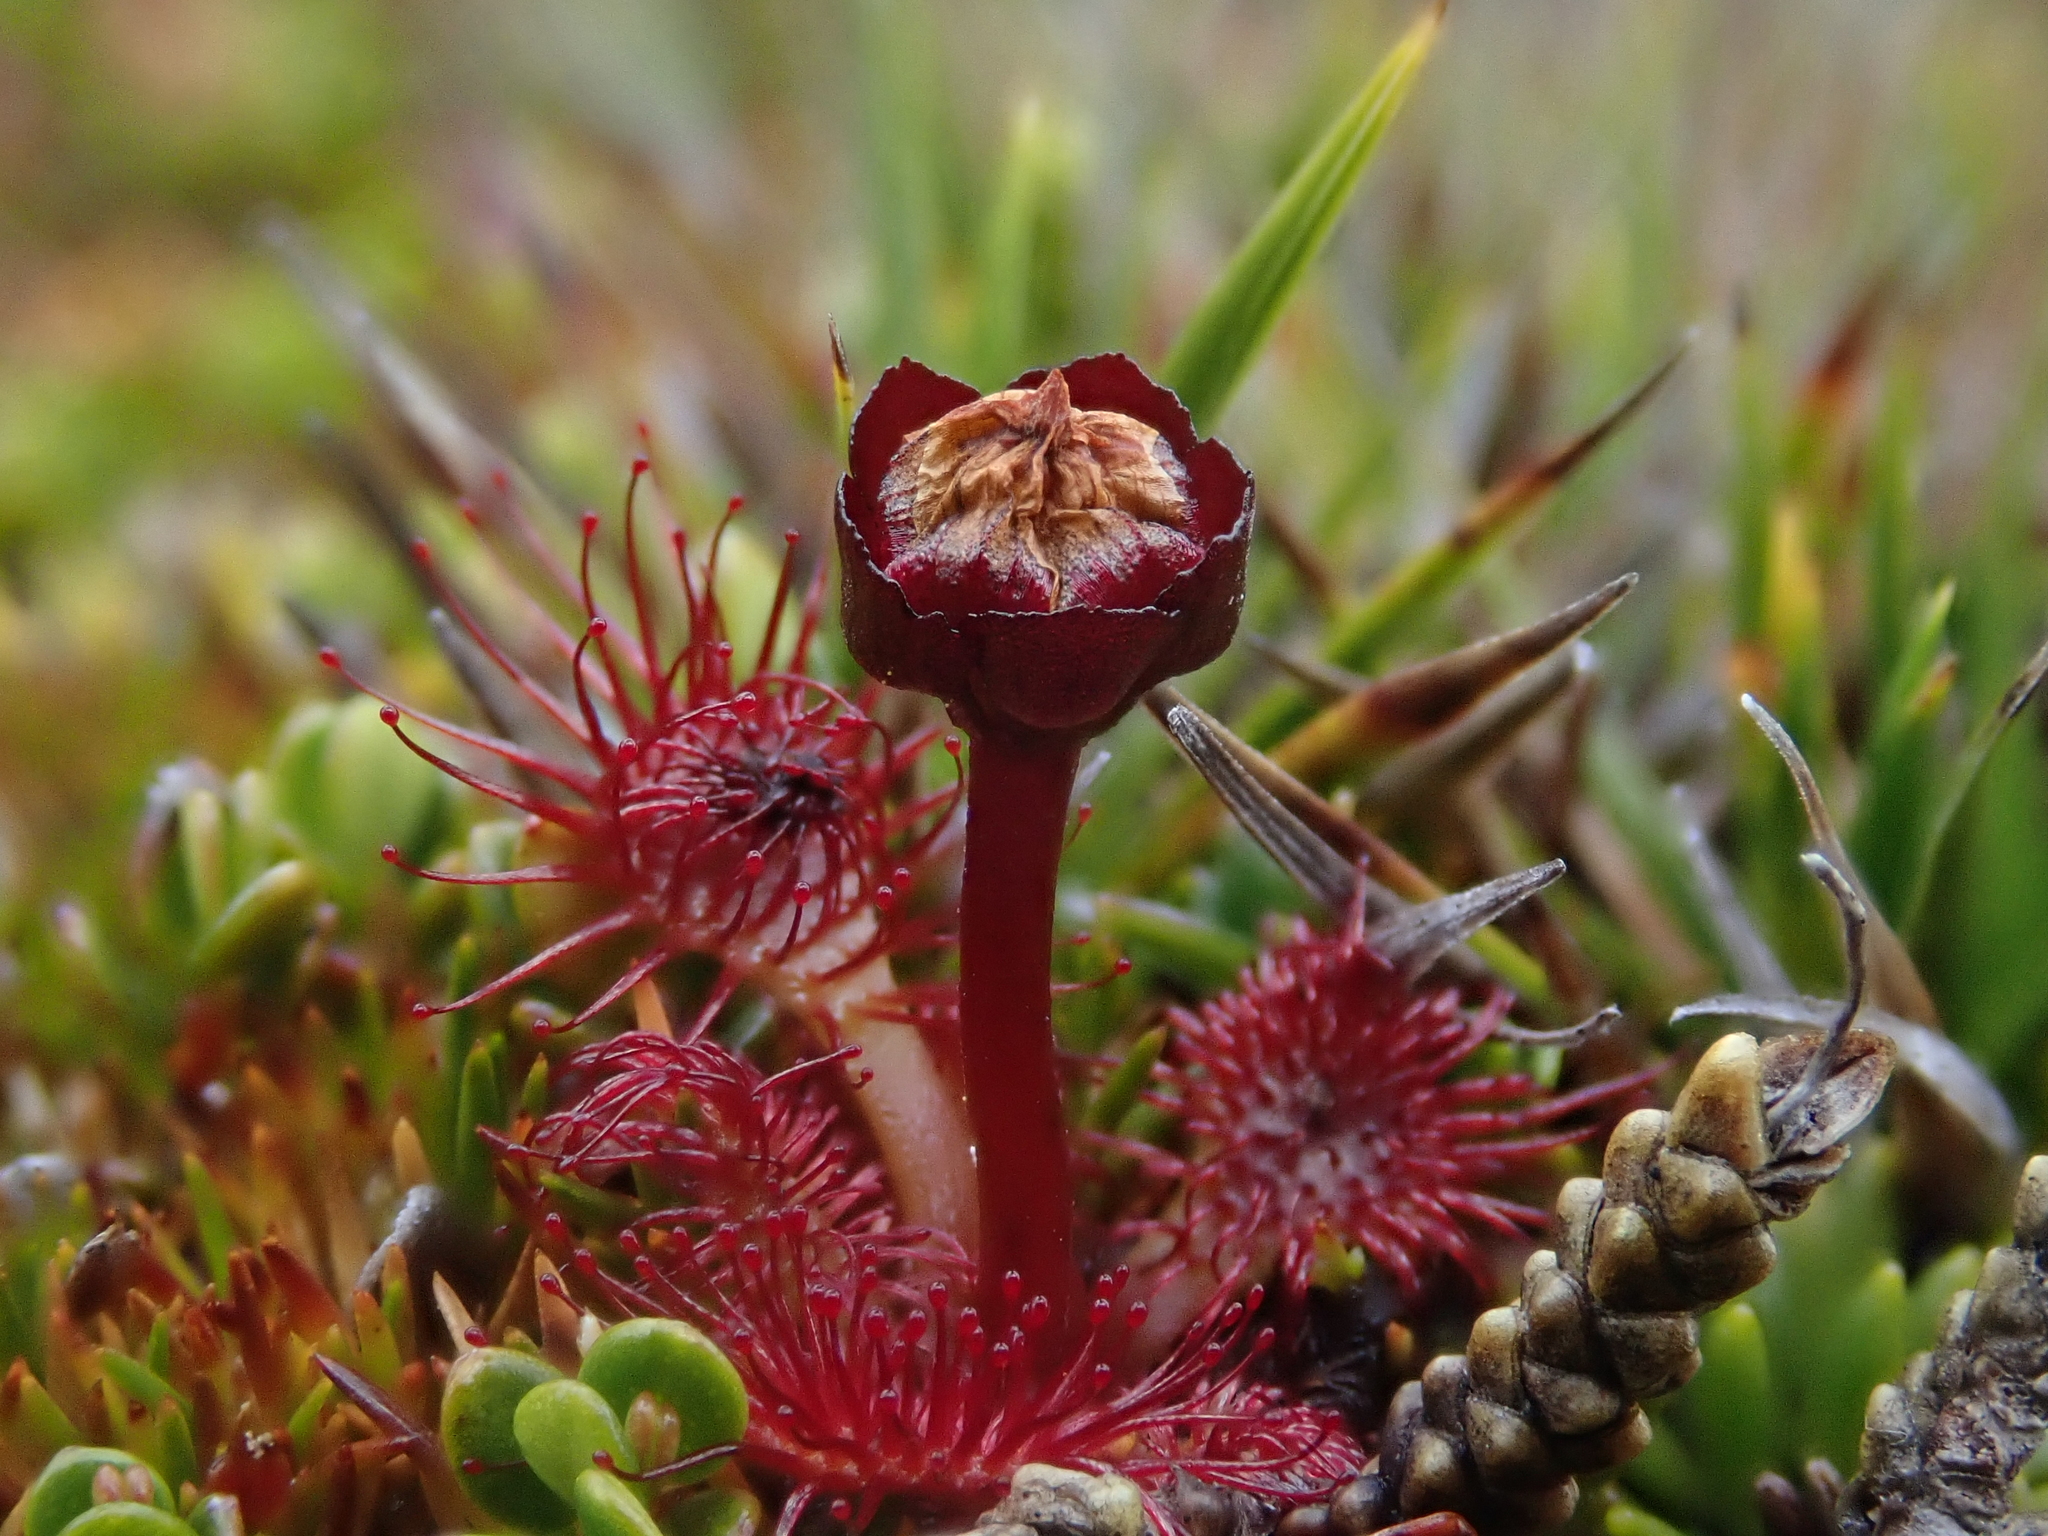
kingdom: Plantae
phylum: Tracheophyta
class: Magnoliopsida
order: Caryophyllales
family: Droseraceae
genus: Drosera
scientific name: Drosera uniflora
